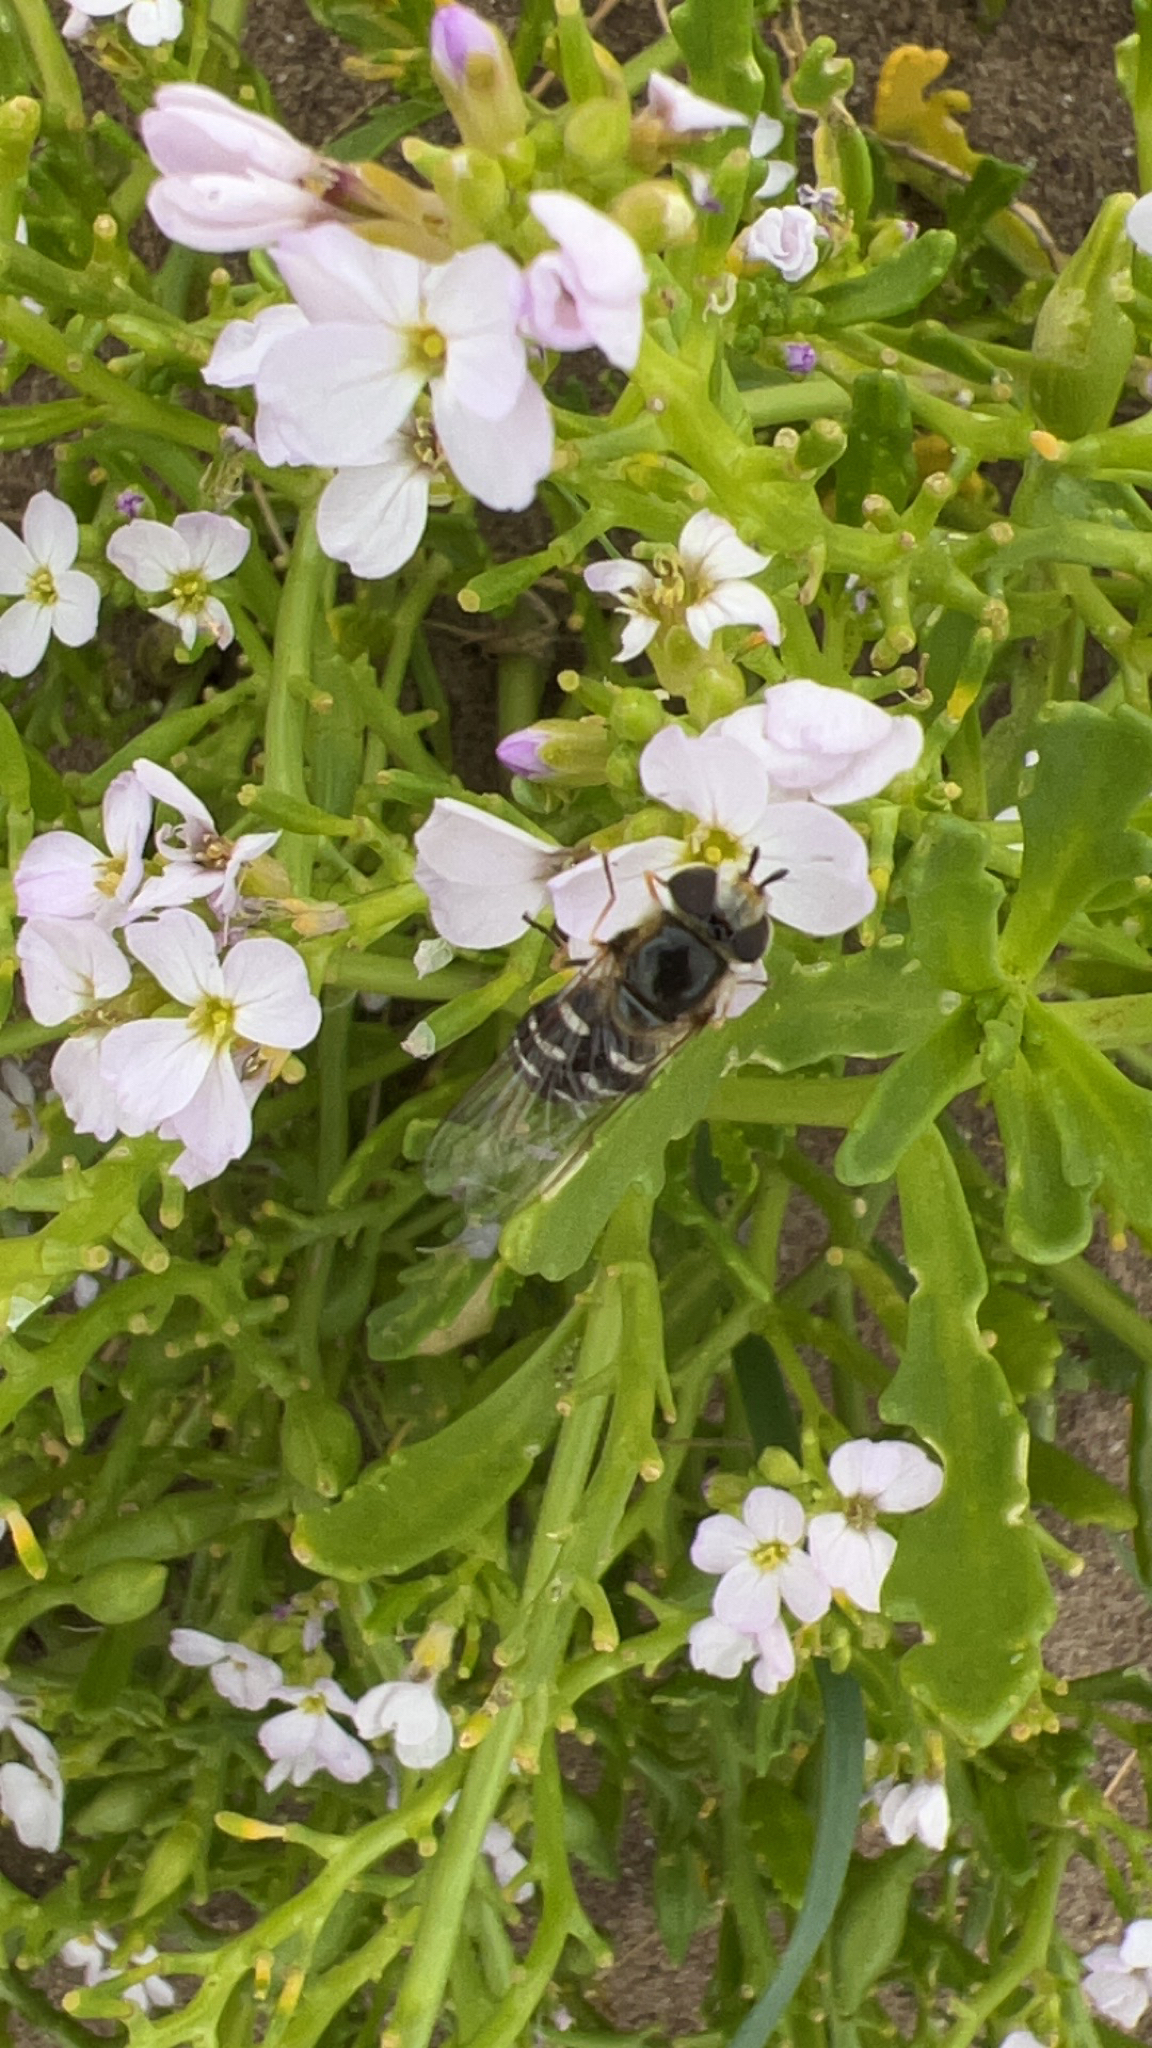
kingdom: Animalia
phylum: Arthropoda
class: Insecta
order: Diptera
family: Syrphidae
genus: Scaeva
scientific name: Scaeva pyrastri
